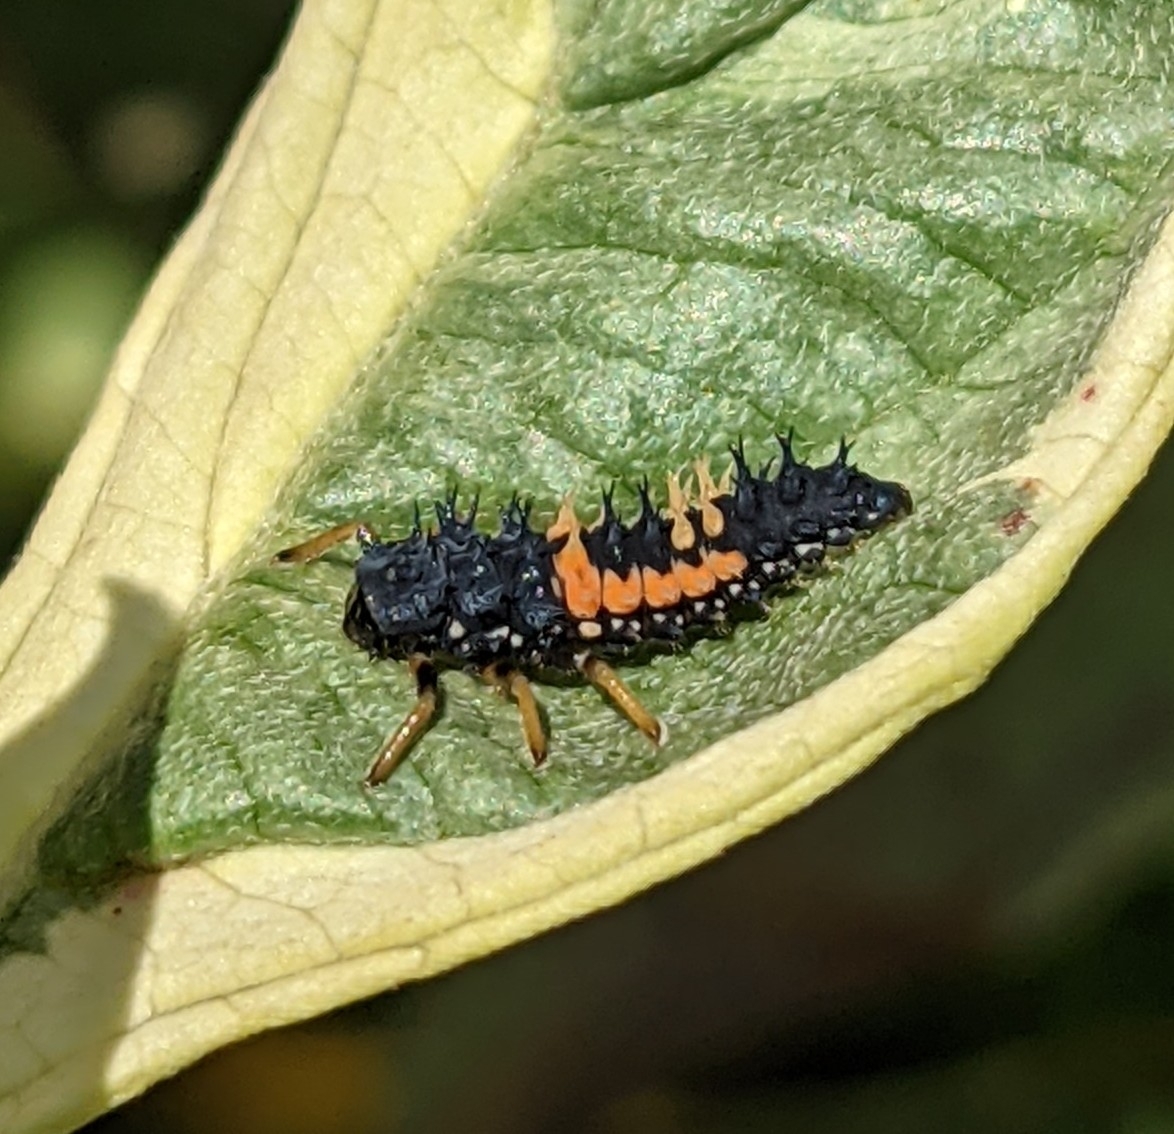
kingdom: Animalia
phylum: Arthropoda
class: Insecta
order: Coleoptera
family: Coccinellidae
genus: Harmonia
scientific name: Harmonia axyridis
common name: Harlequin ladybird
